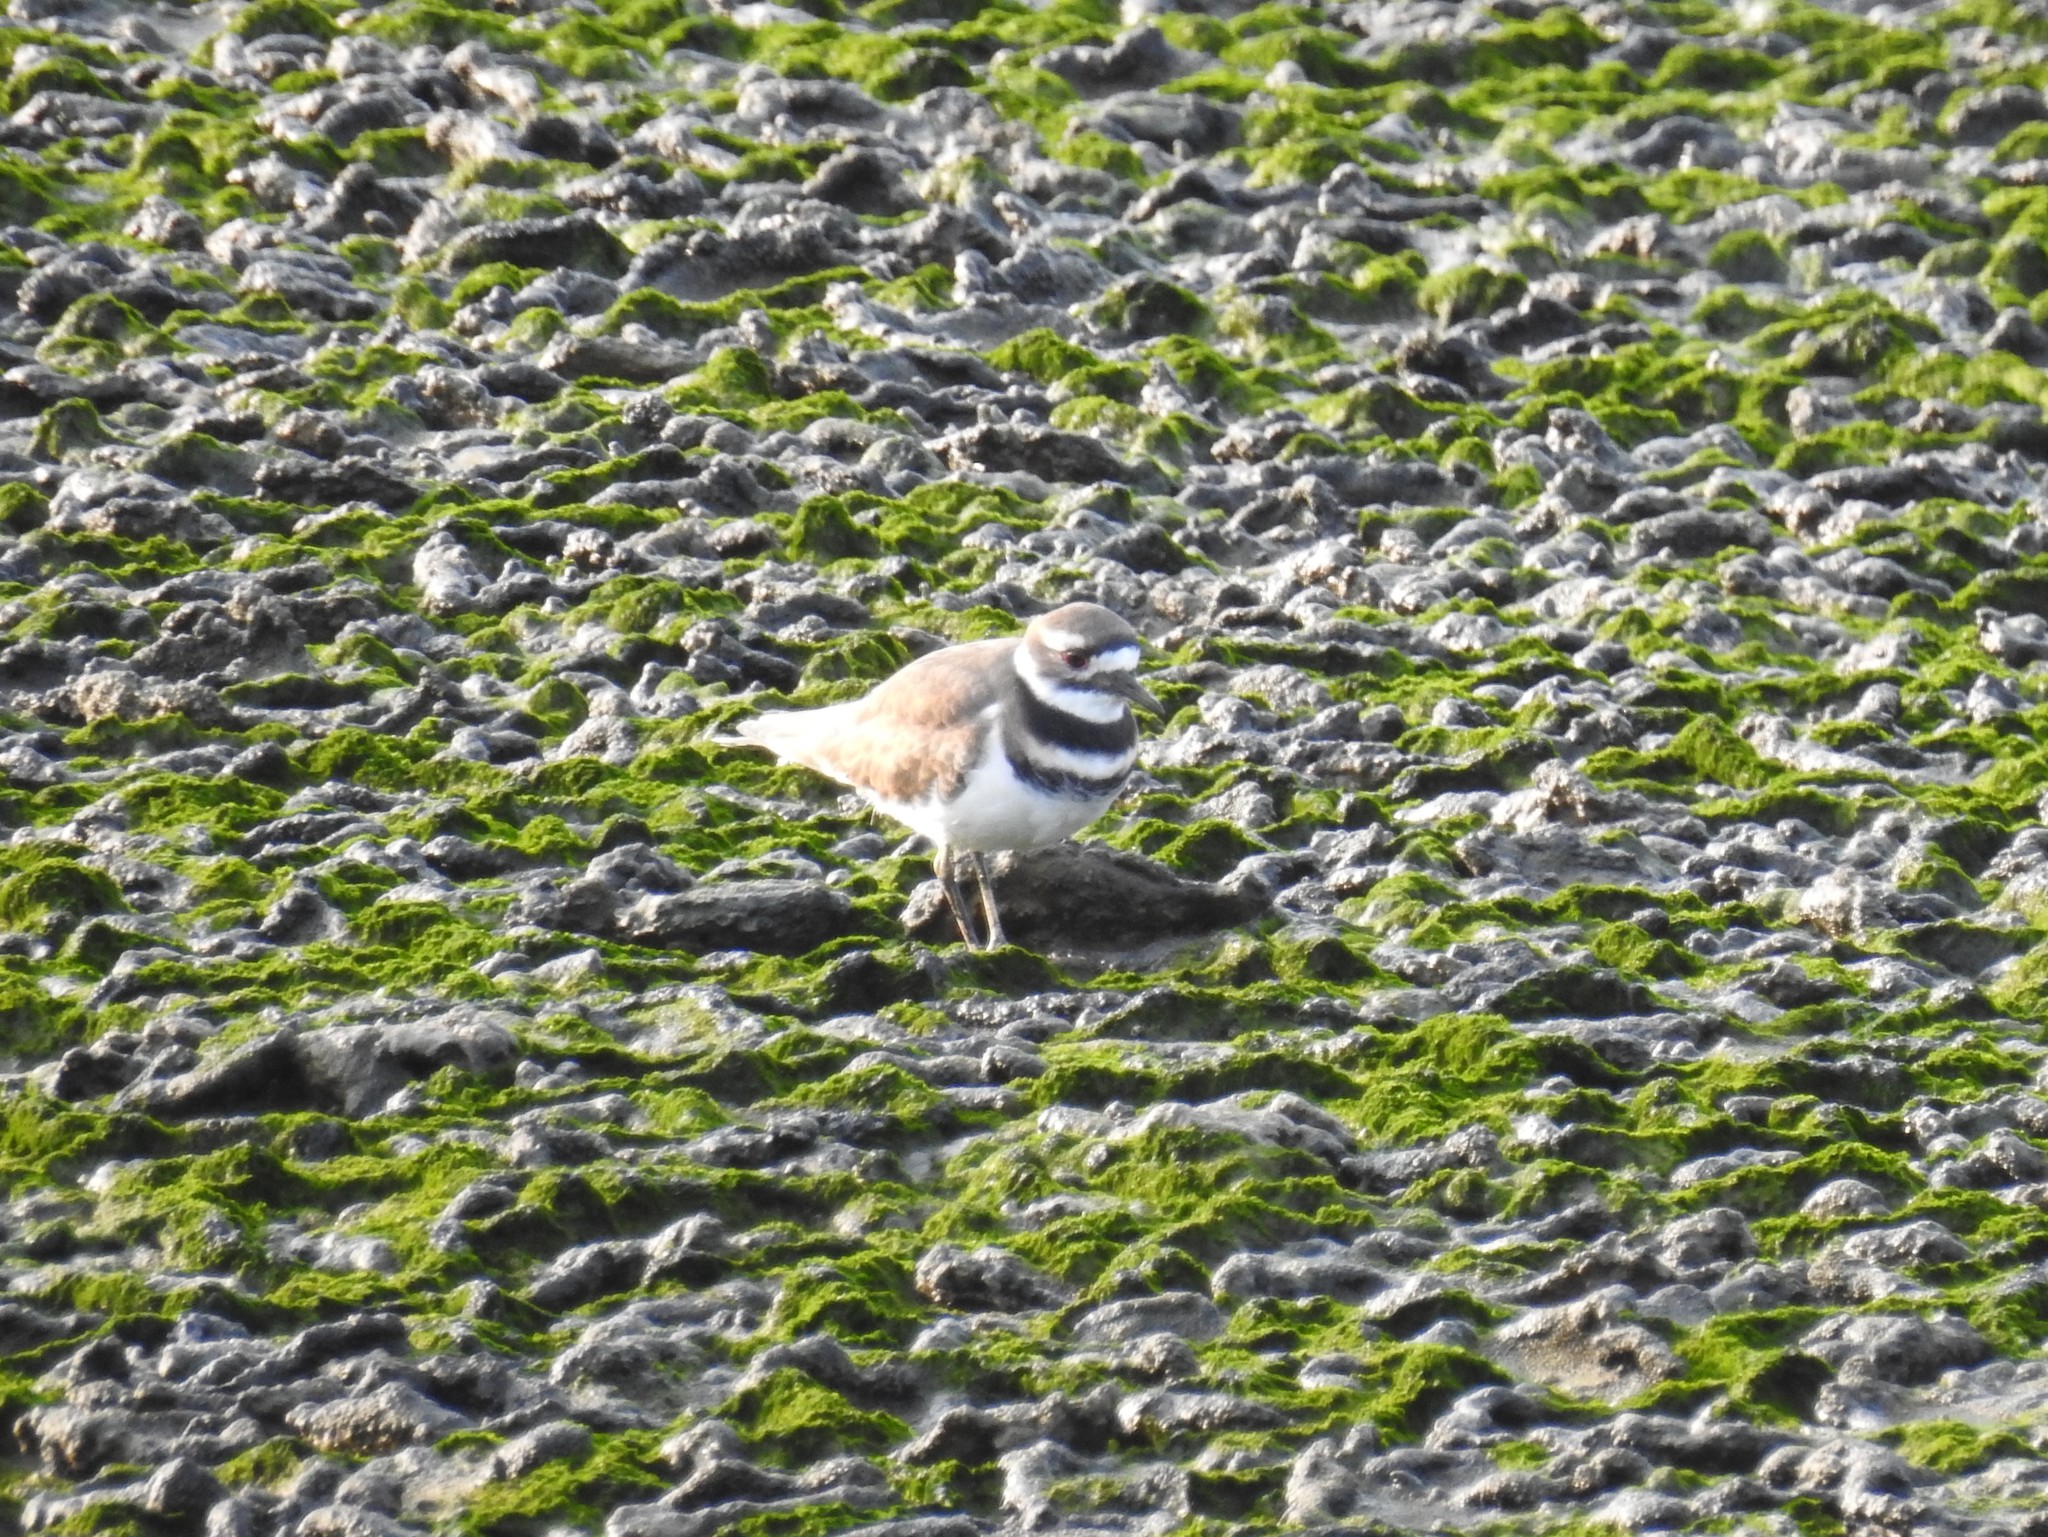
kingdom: Animalia
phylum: Chordata
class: Aves
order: Charadriiformes
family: Charadriidae
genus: Charadrius
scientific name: Charadrius vociferus
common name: Killdeer
